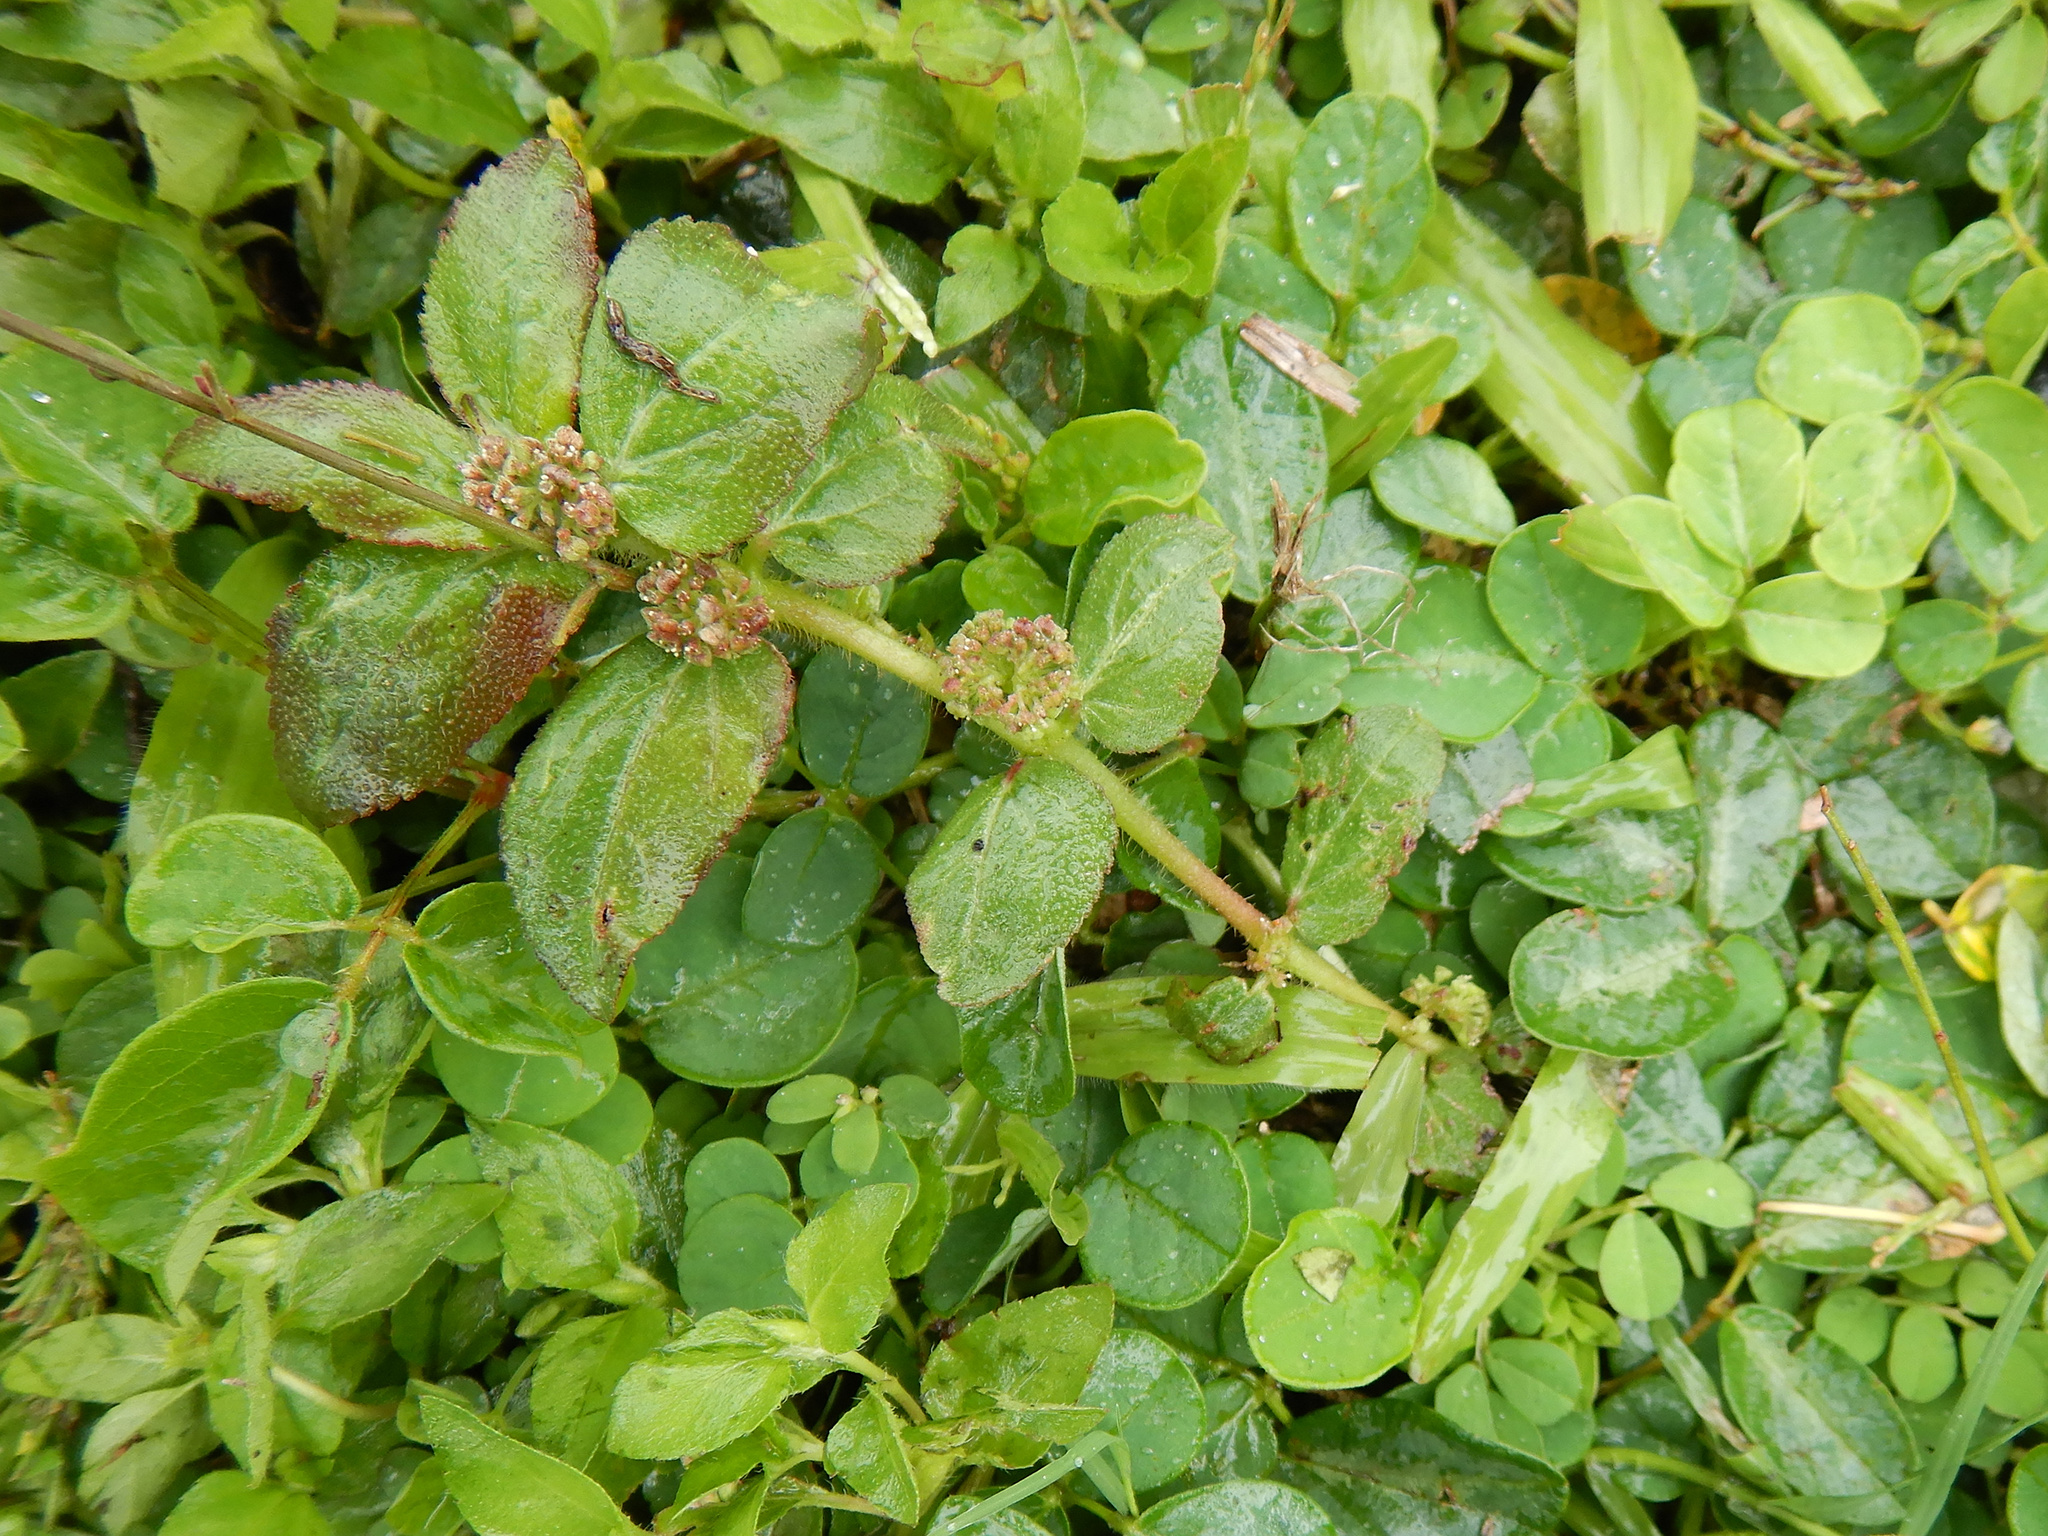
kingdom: Plantae
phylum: Tracheophyta
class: Magnoliopsida
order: Malpighiales
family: Euphorbiaceae
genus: Euphorbia
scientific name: Euphorbia hirta
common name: Pillpod sandmat
